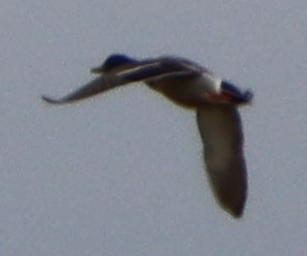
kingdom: Animalia
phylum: Chordata
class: Aves
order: Anseriformes
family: Anatidae
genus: Anas
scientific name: Anas platyrhynchos
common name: Mallard
